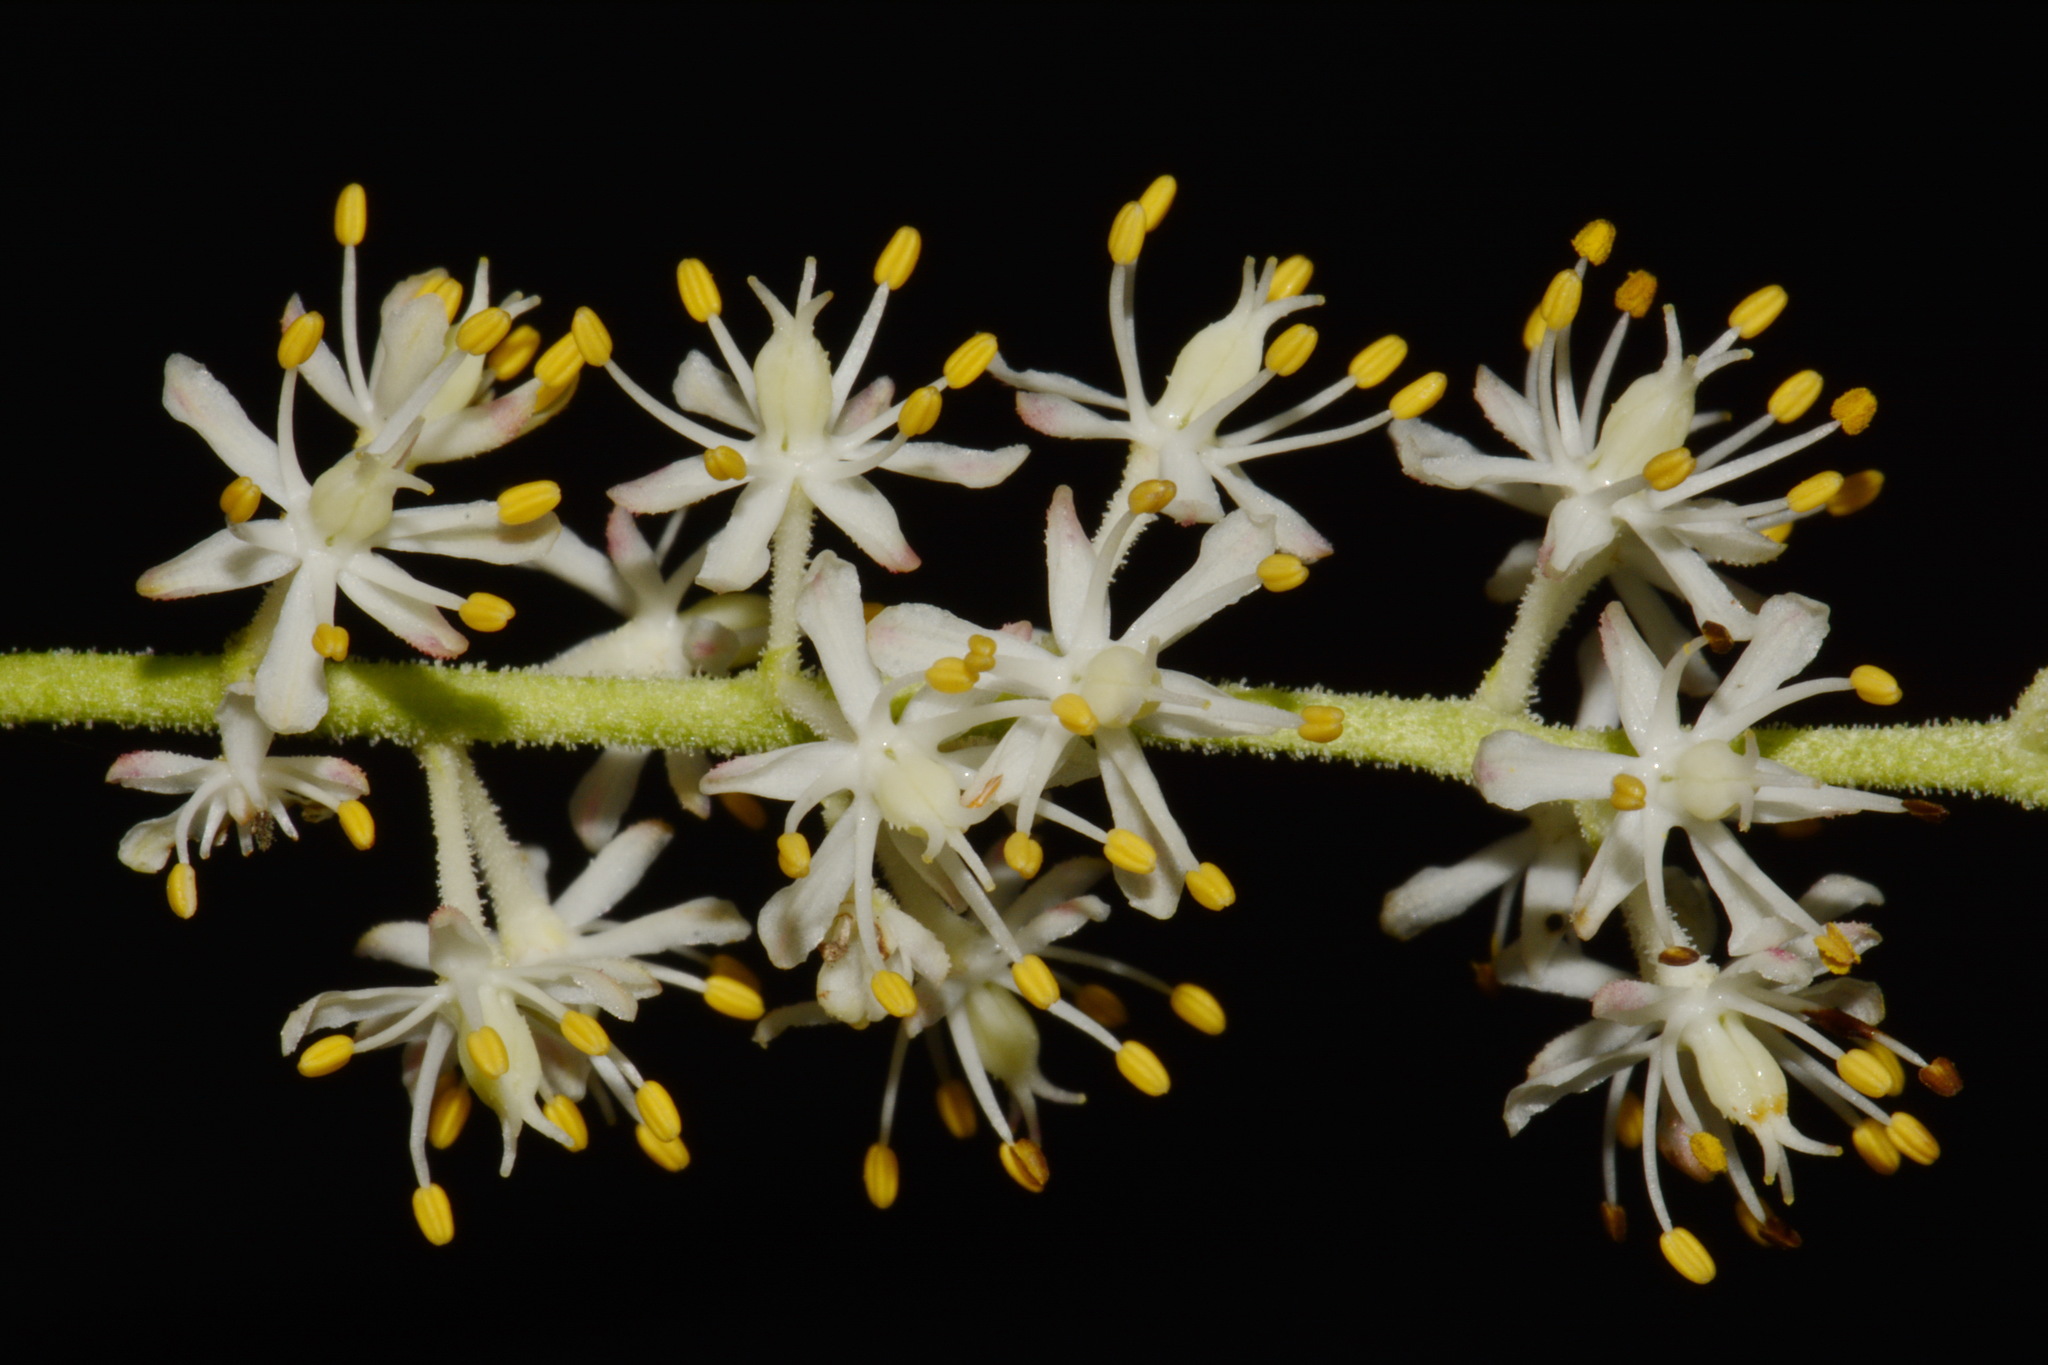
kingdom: Plantae
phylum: Tracheophyta
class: Liliopsida
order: Alismatales
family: Tofieldiaceae
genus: Triantha
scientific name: Triantha racemosa
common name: Coastal false asphodel
